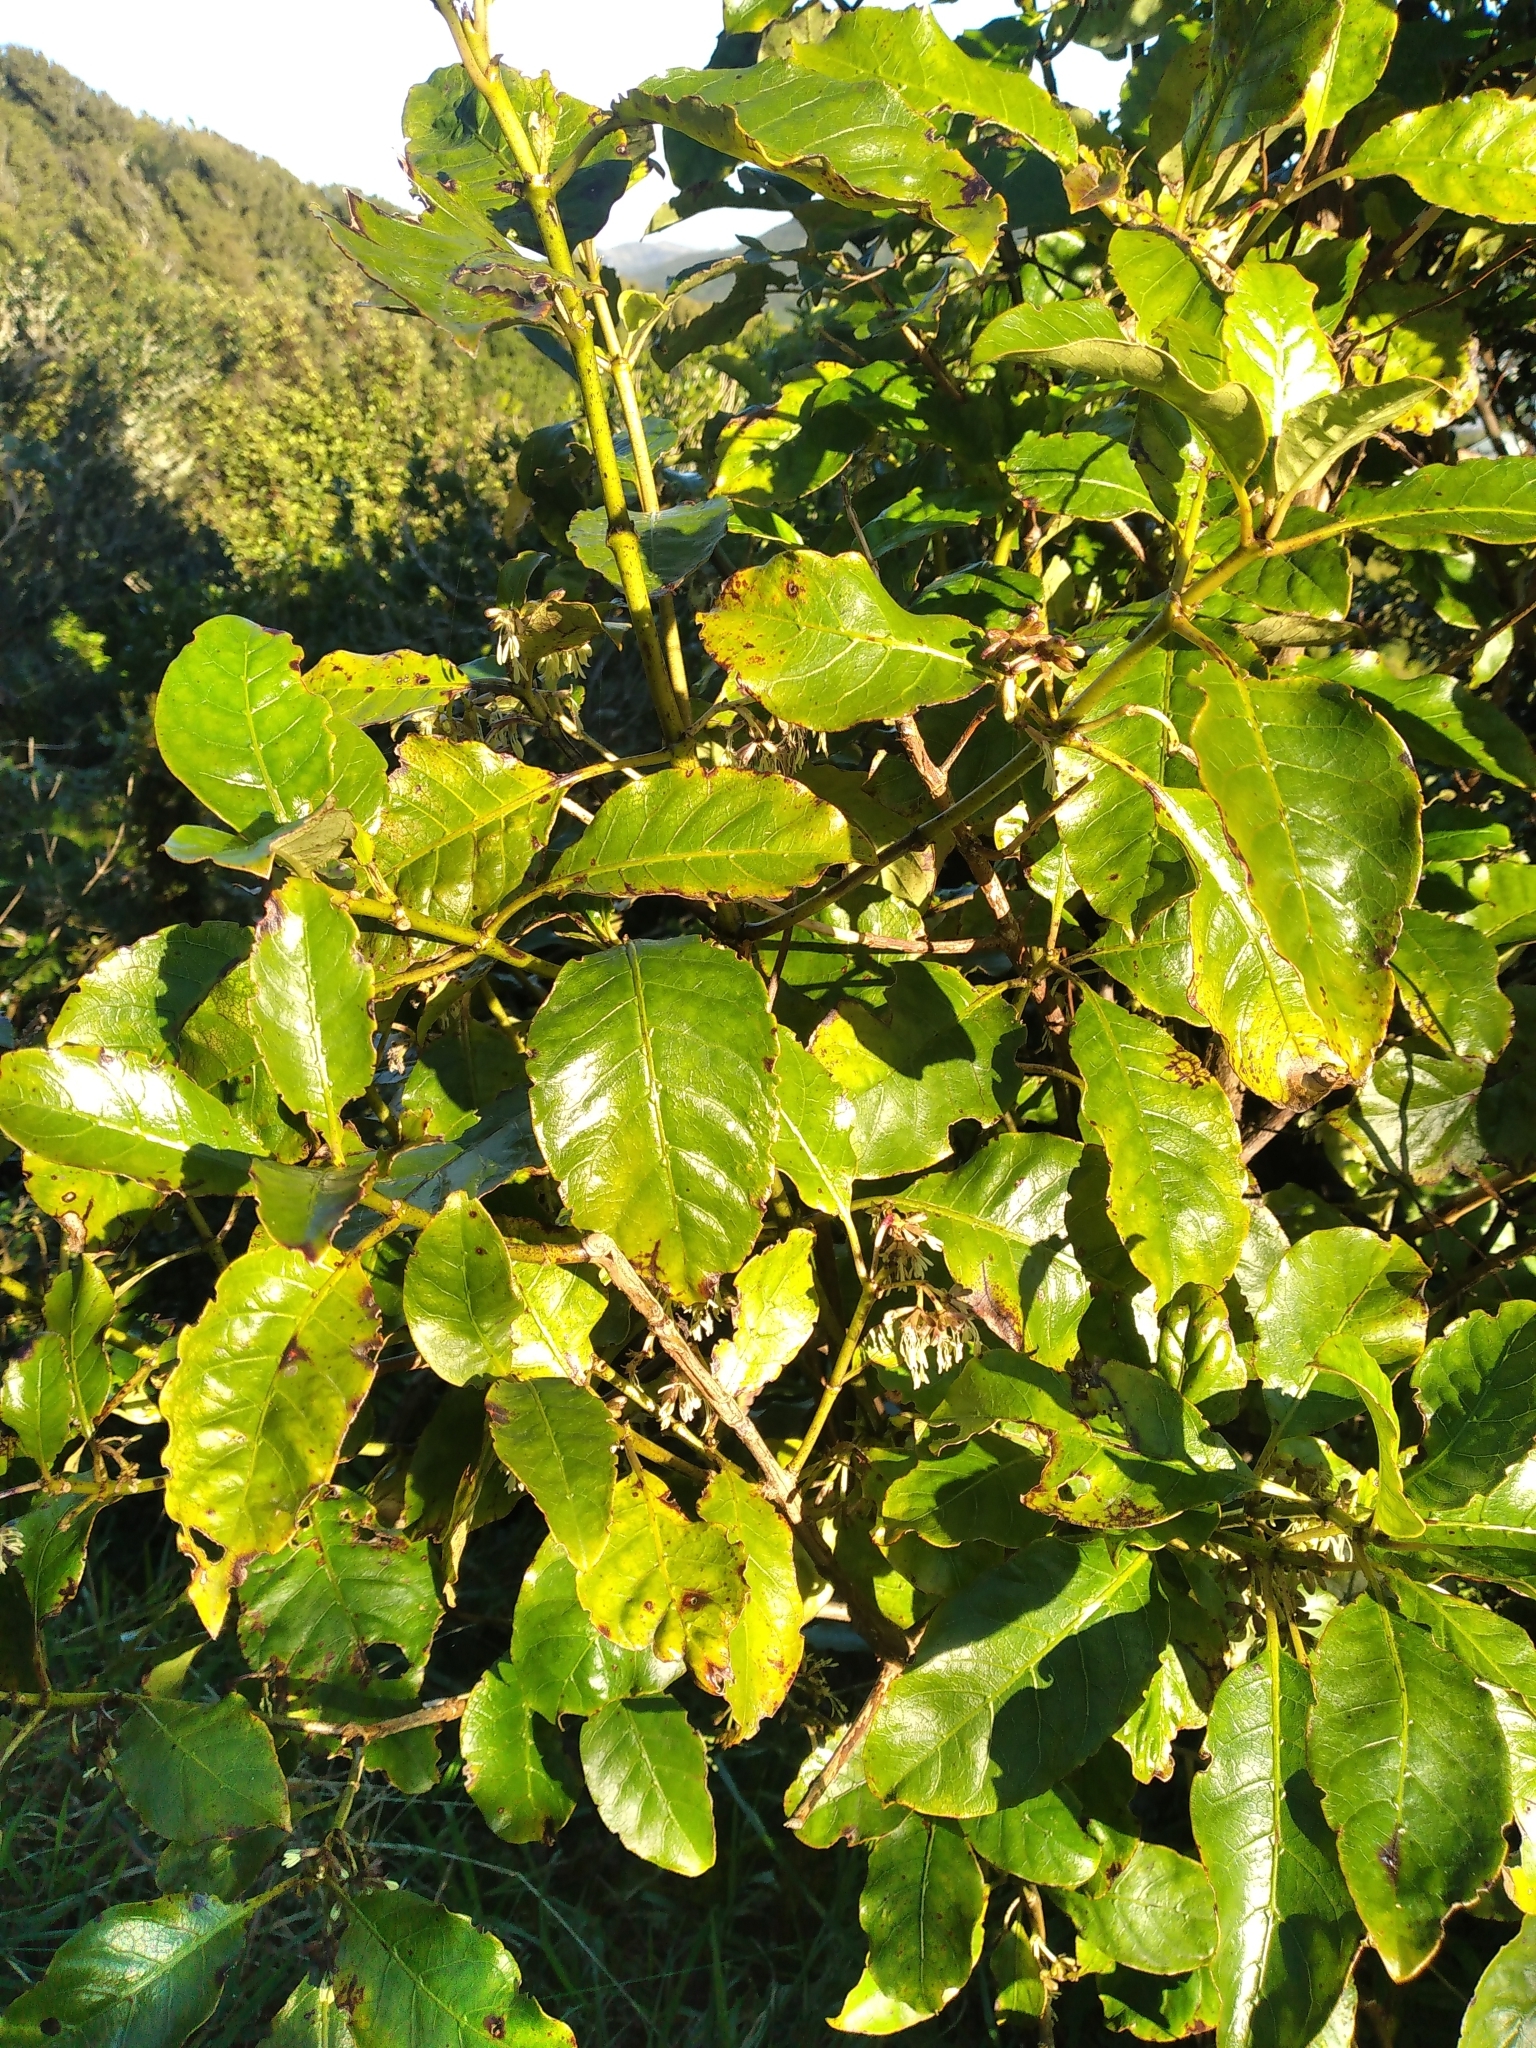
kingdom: Plantae
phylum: Tracheophyta
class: Magnoliopsida
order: Gentianales
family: Rubiaceae
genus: Coprosma
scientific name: Coprosma autumnalis
